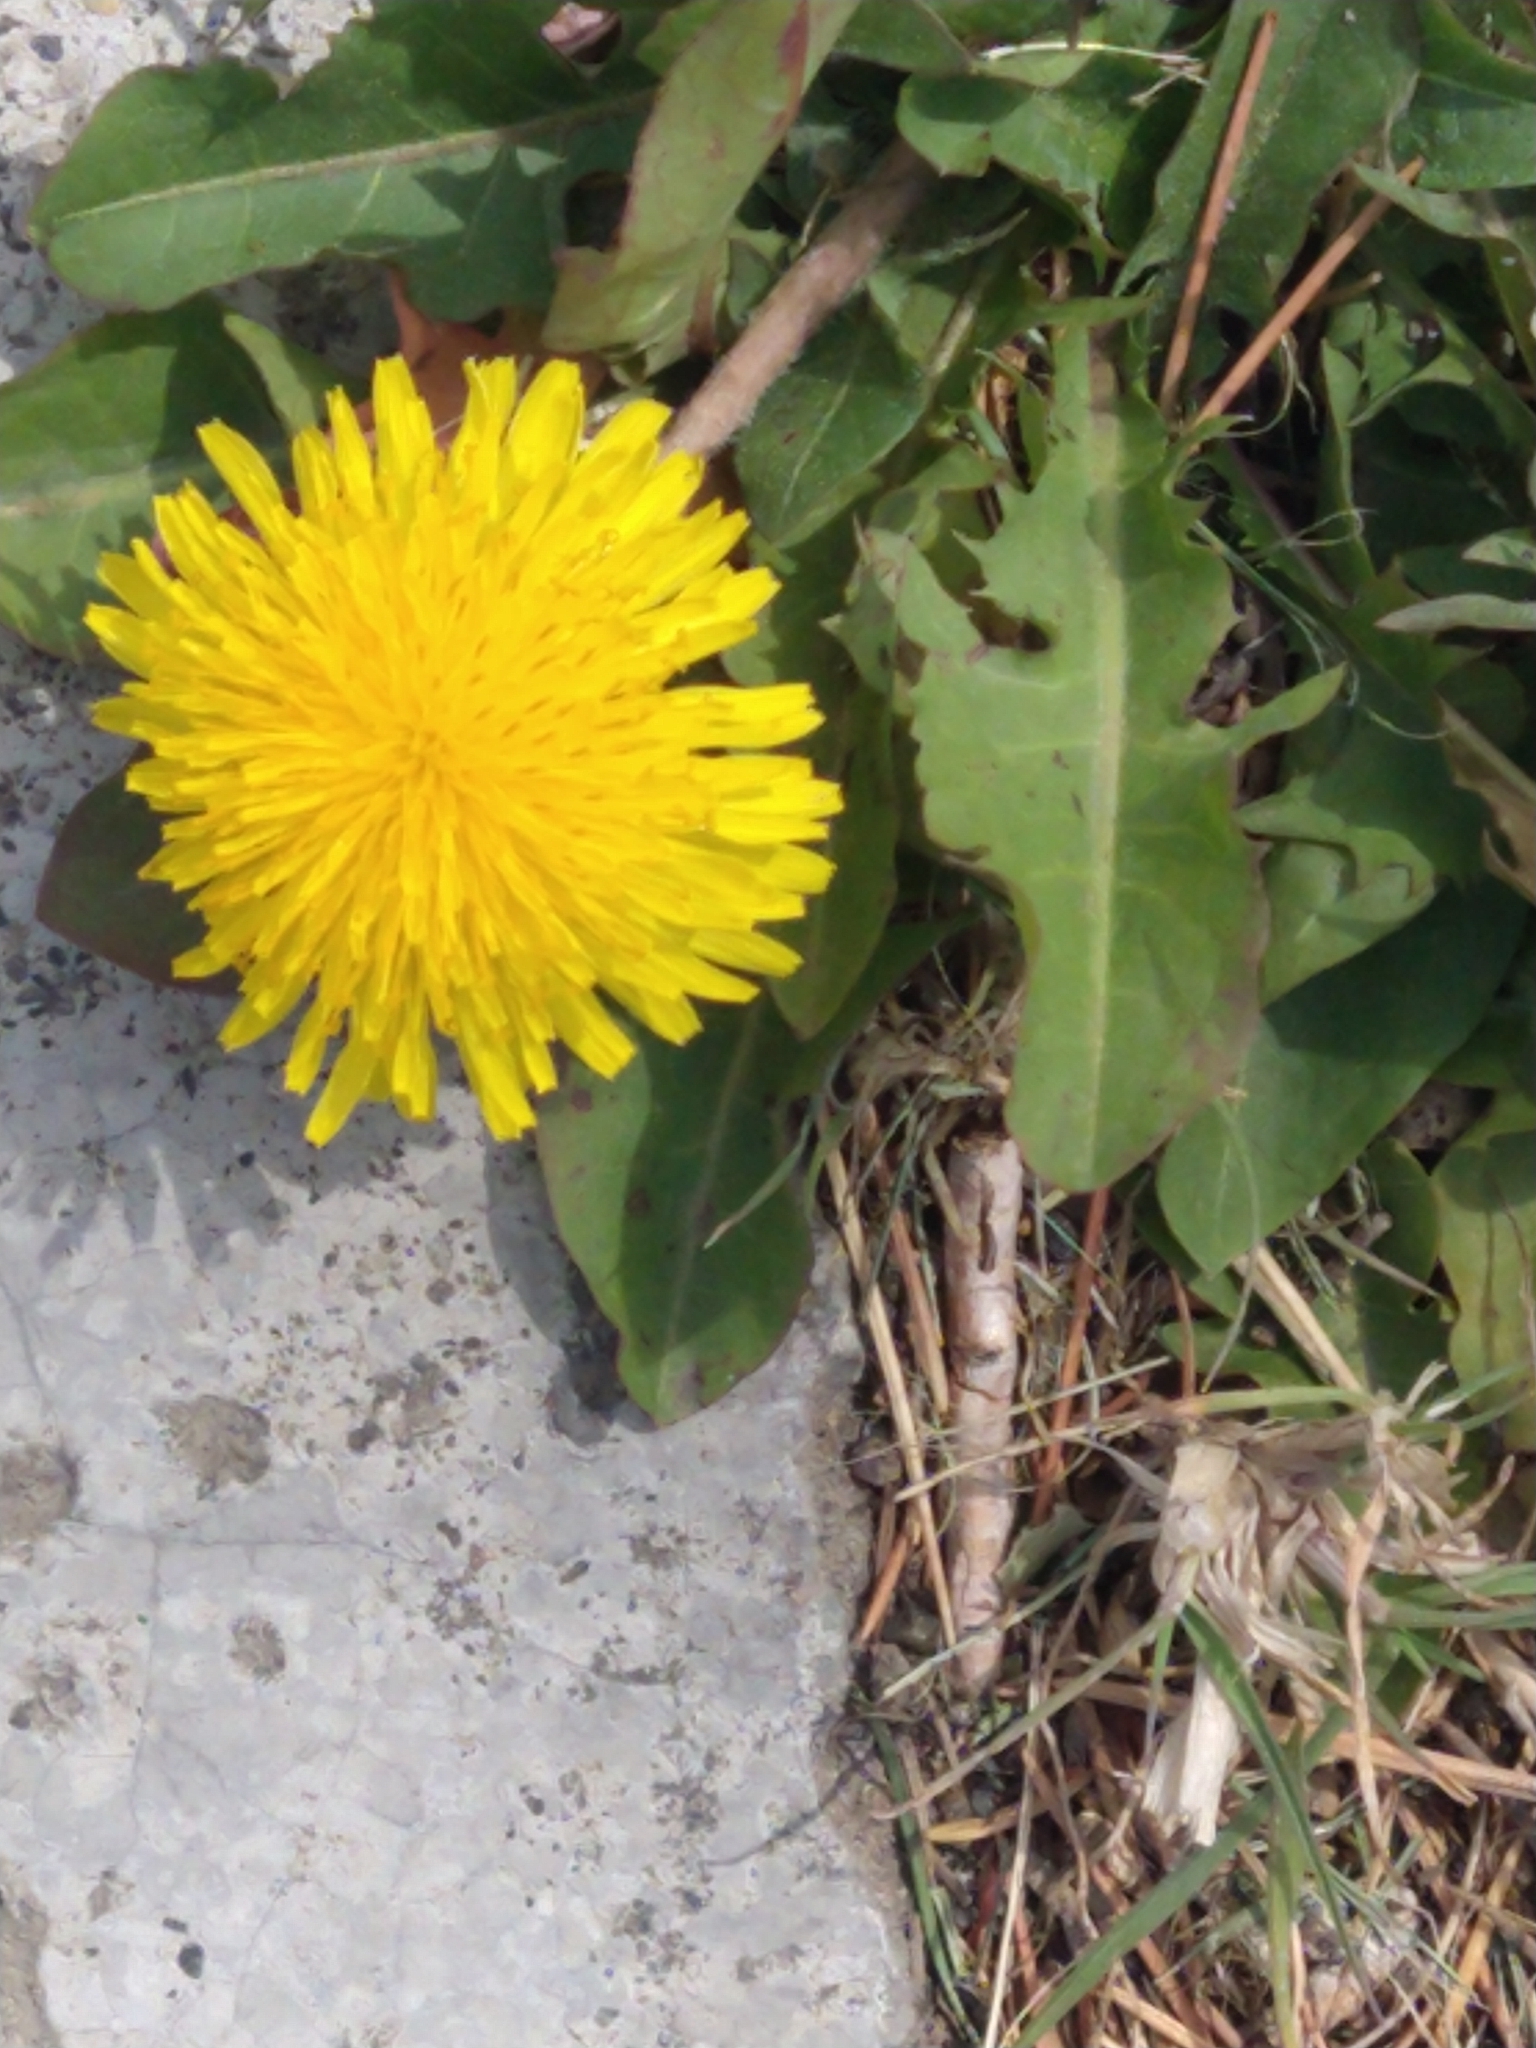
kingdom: Plantae
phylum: Tracheophyta
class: Magnoliopsida
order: Asterales
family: Asteraceae
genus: Taraxacum
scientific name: Taraxacum officinale
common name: Common dandelion
